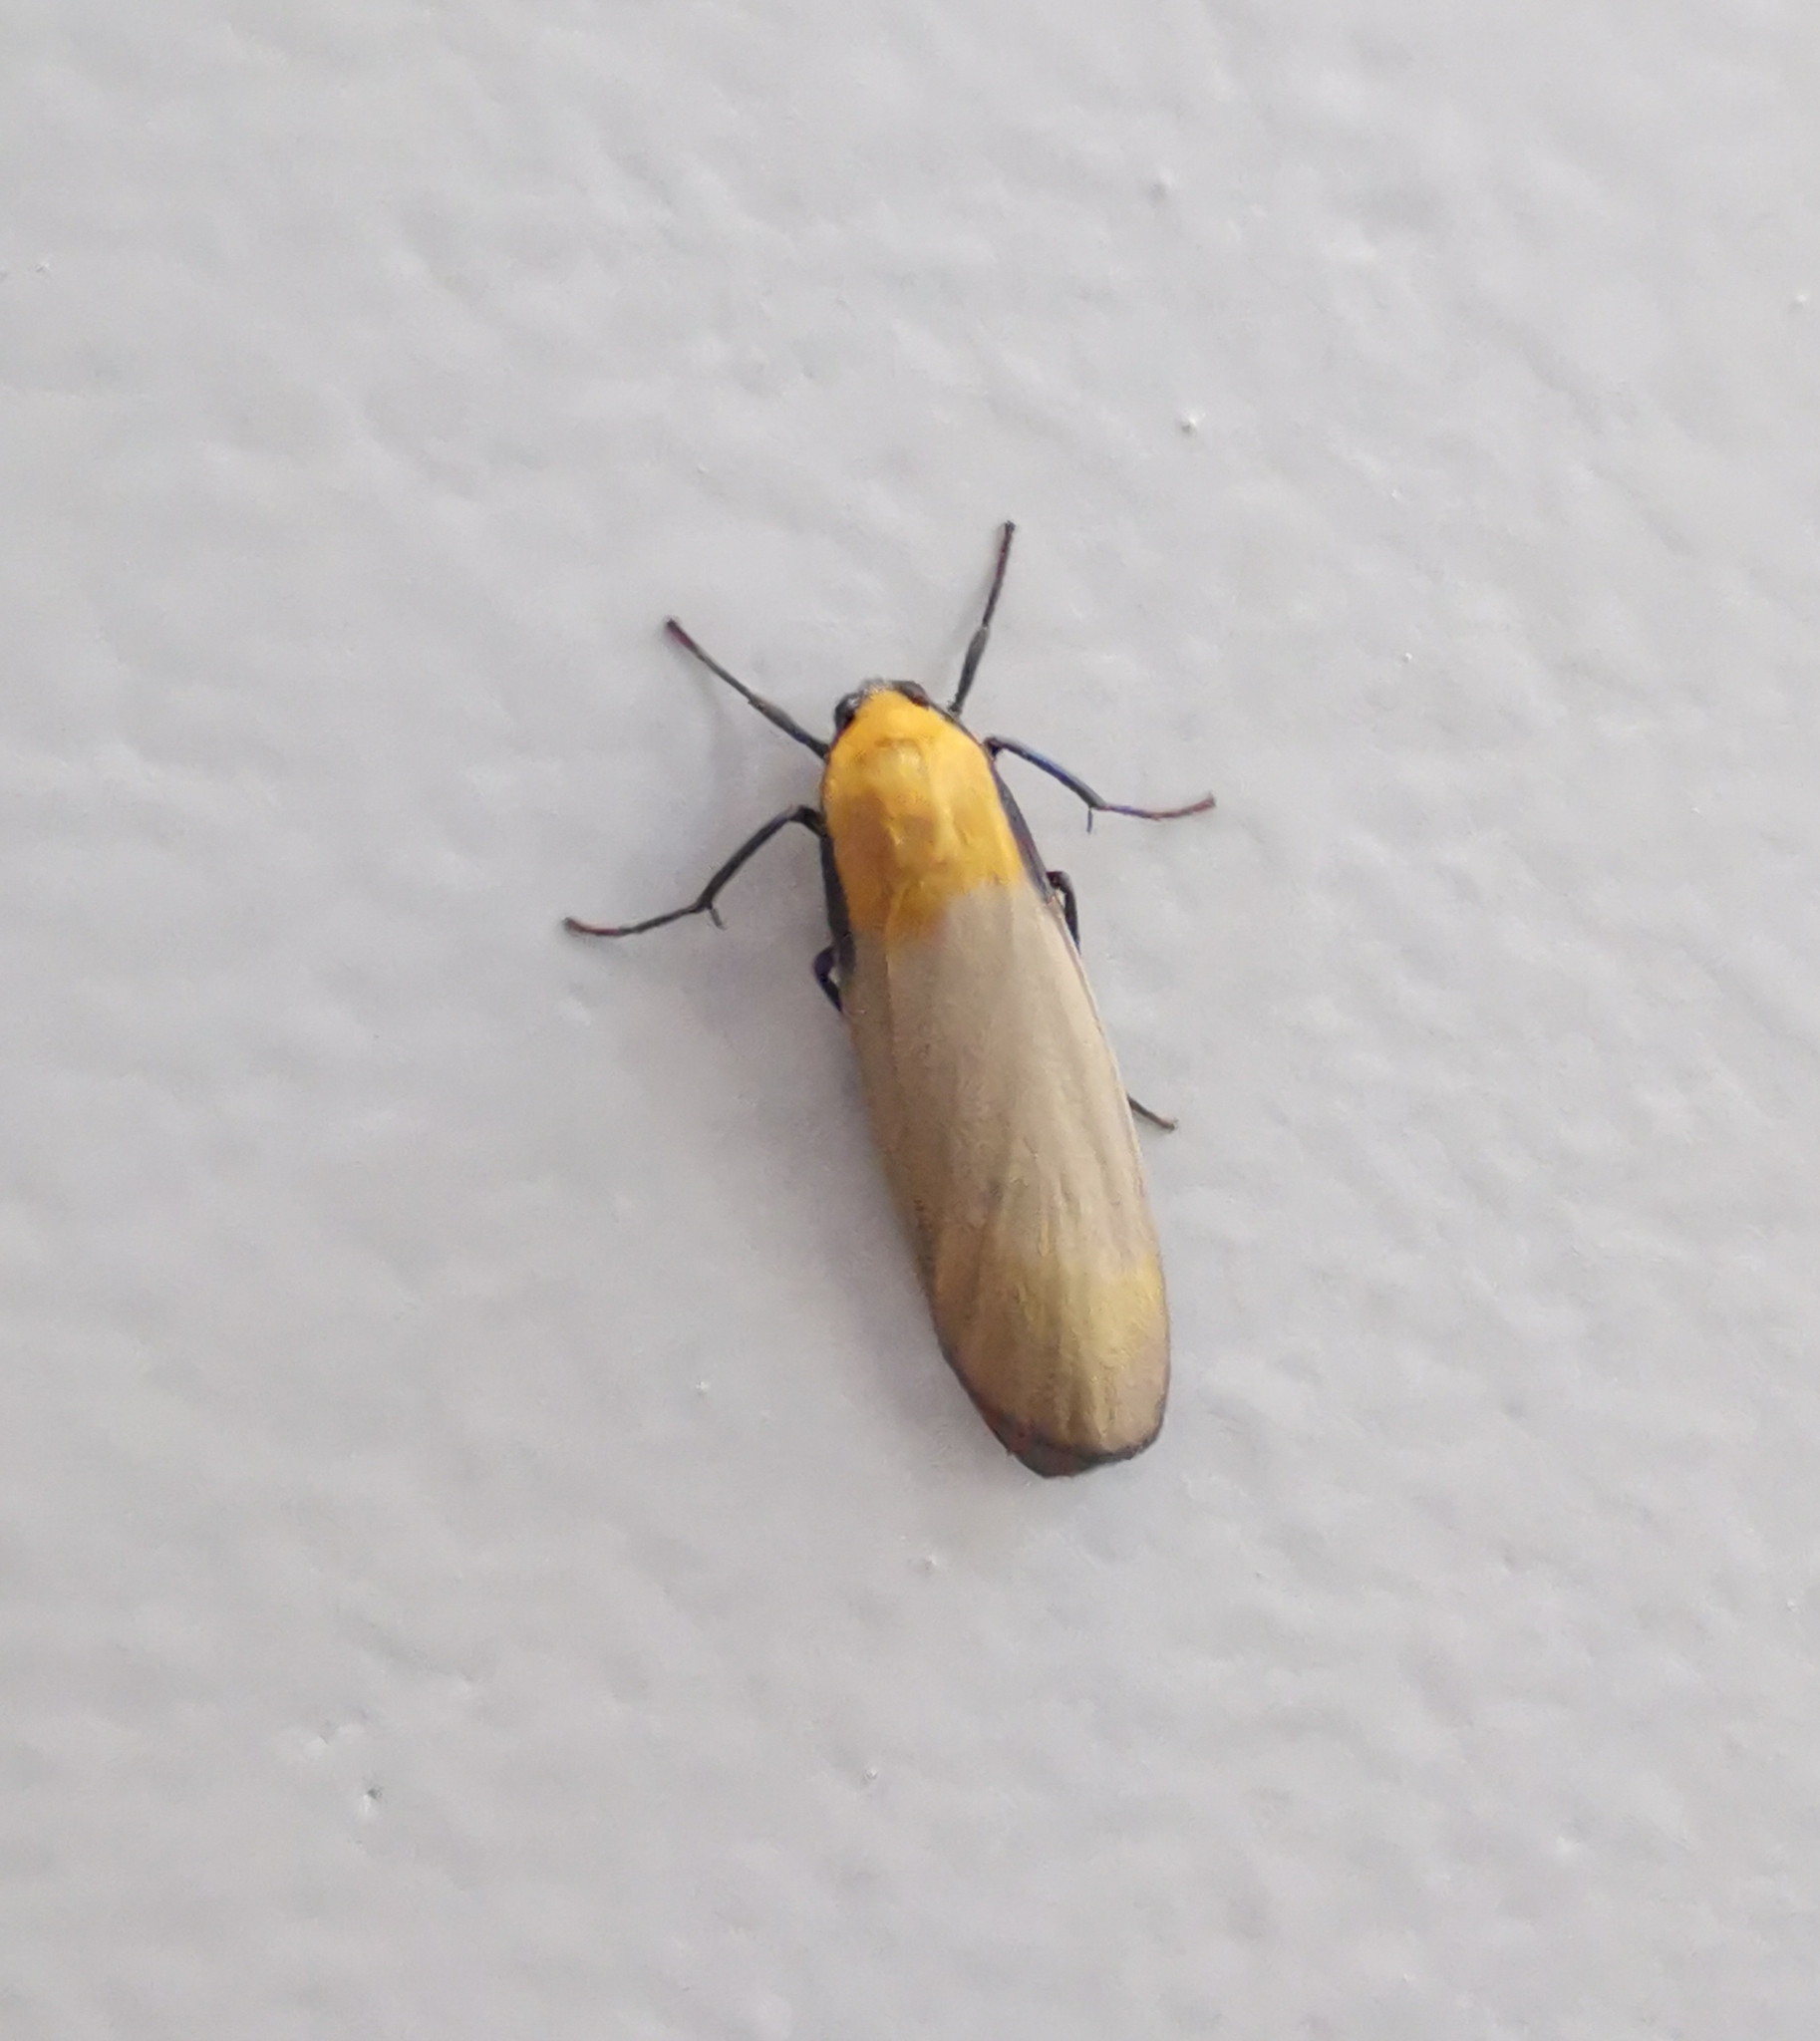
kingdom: Animalia
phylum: Arthropoda
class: Insecta
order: Lepidoptera
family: Erebidae
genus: Lithosia
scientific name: Lithosia quadra
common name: Four-spotted footman
